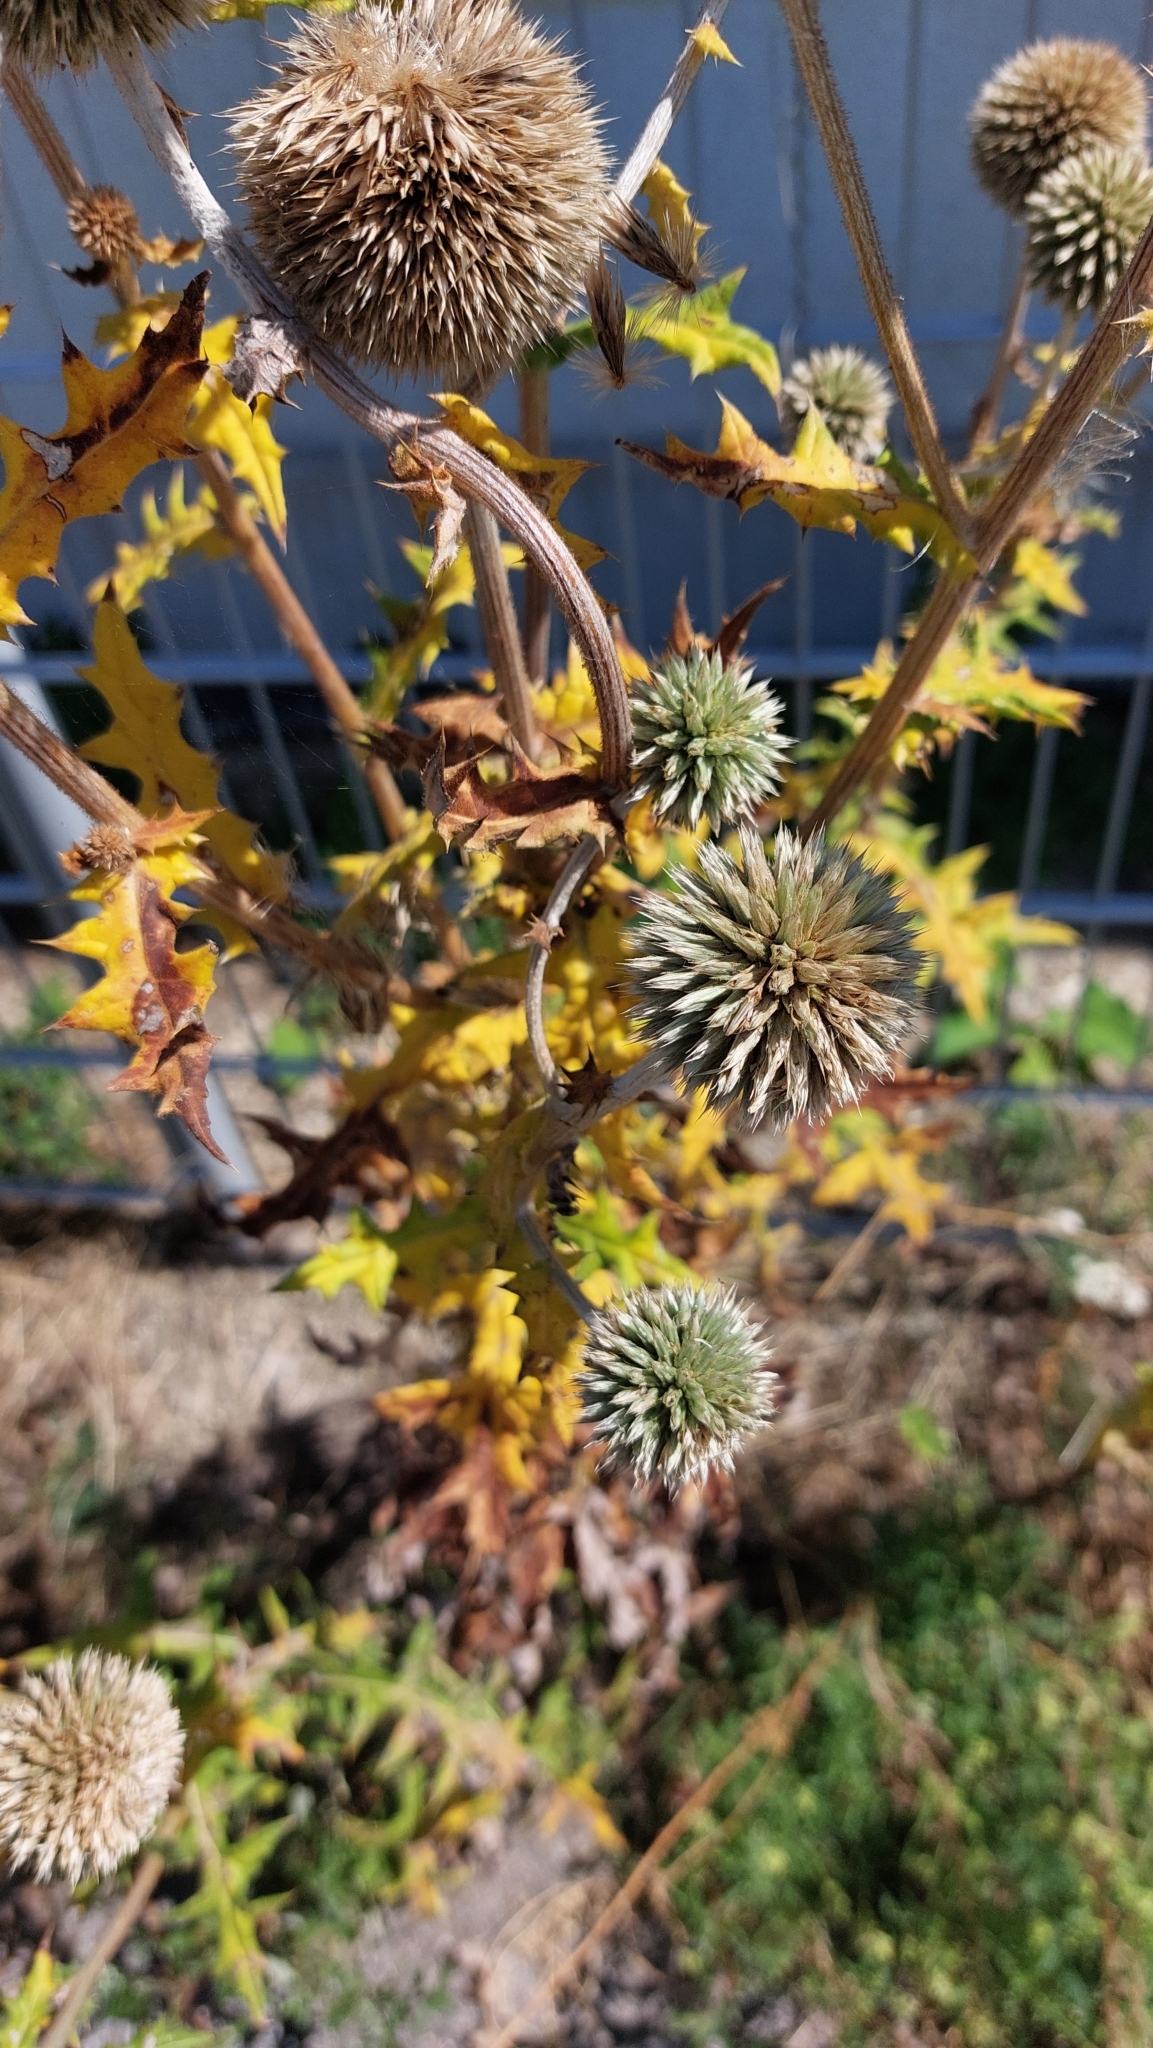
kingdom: Plantae
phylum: Tracheophyta
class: Magnoliopsida
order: Asterales
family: Asteraceae
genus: Echinops
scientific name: Echinops sphaerocephalus
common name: Glandular globe-thistle
